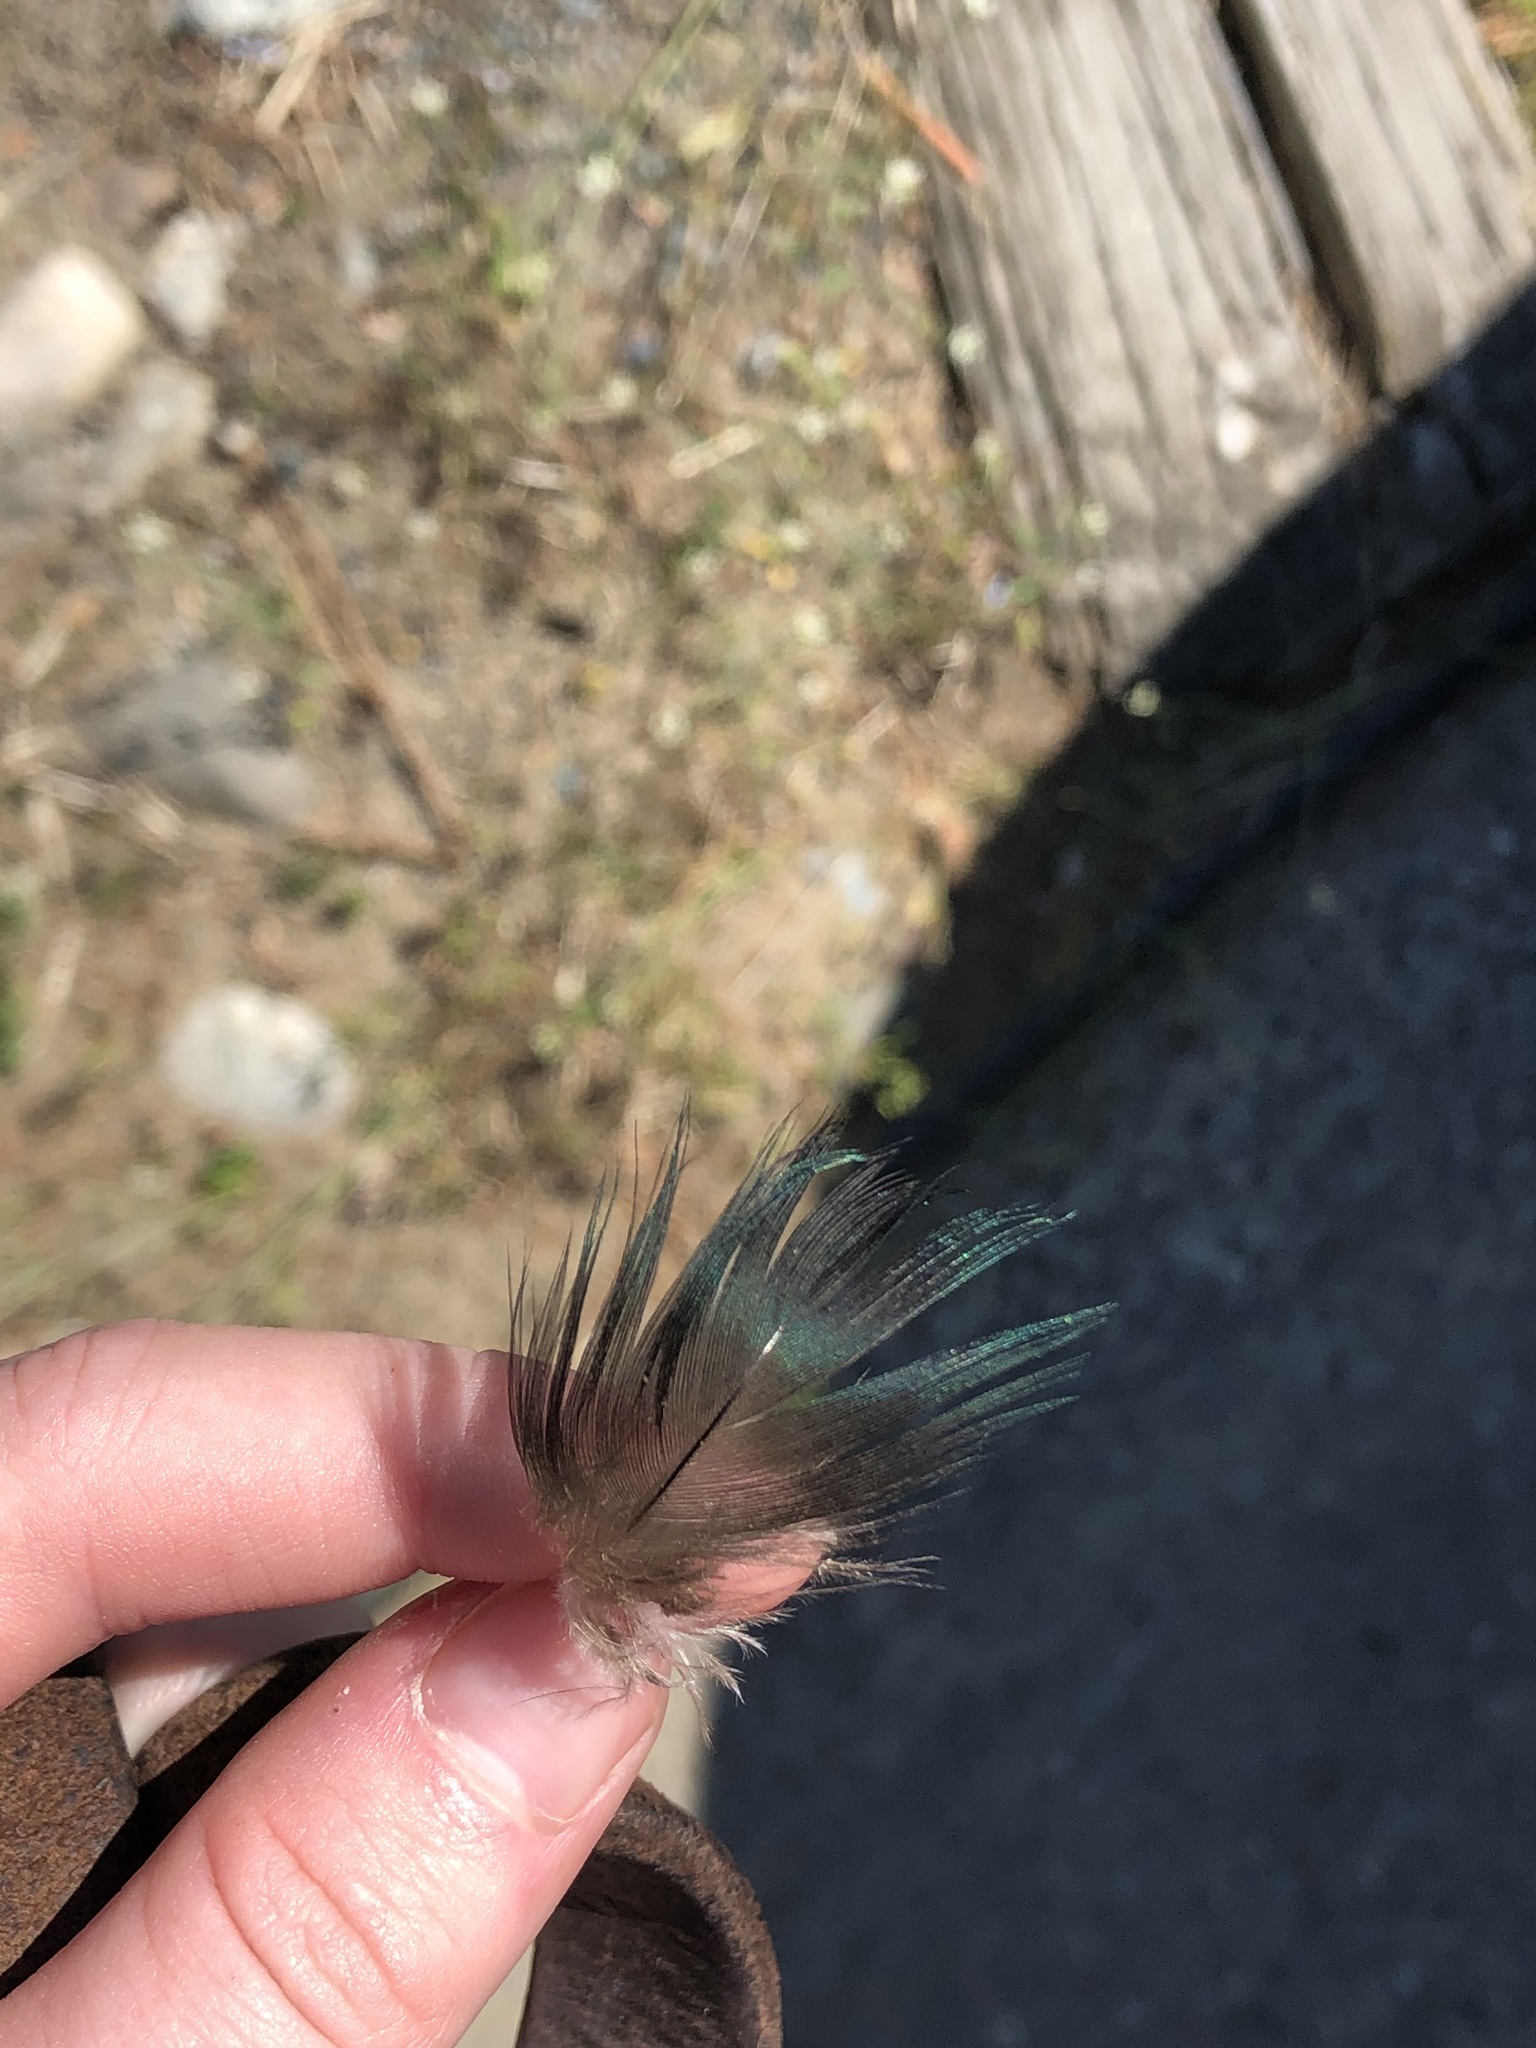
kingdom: Animalia
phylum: Chordata
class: Aves
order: Anseriformes
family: Anatidae
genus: Aix
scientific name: Aix sponsa
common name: Wood duck
